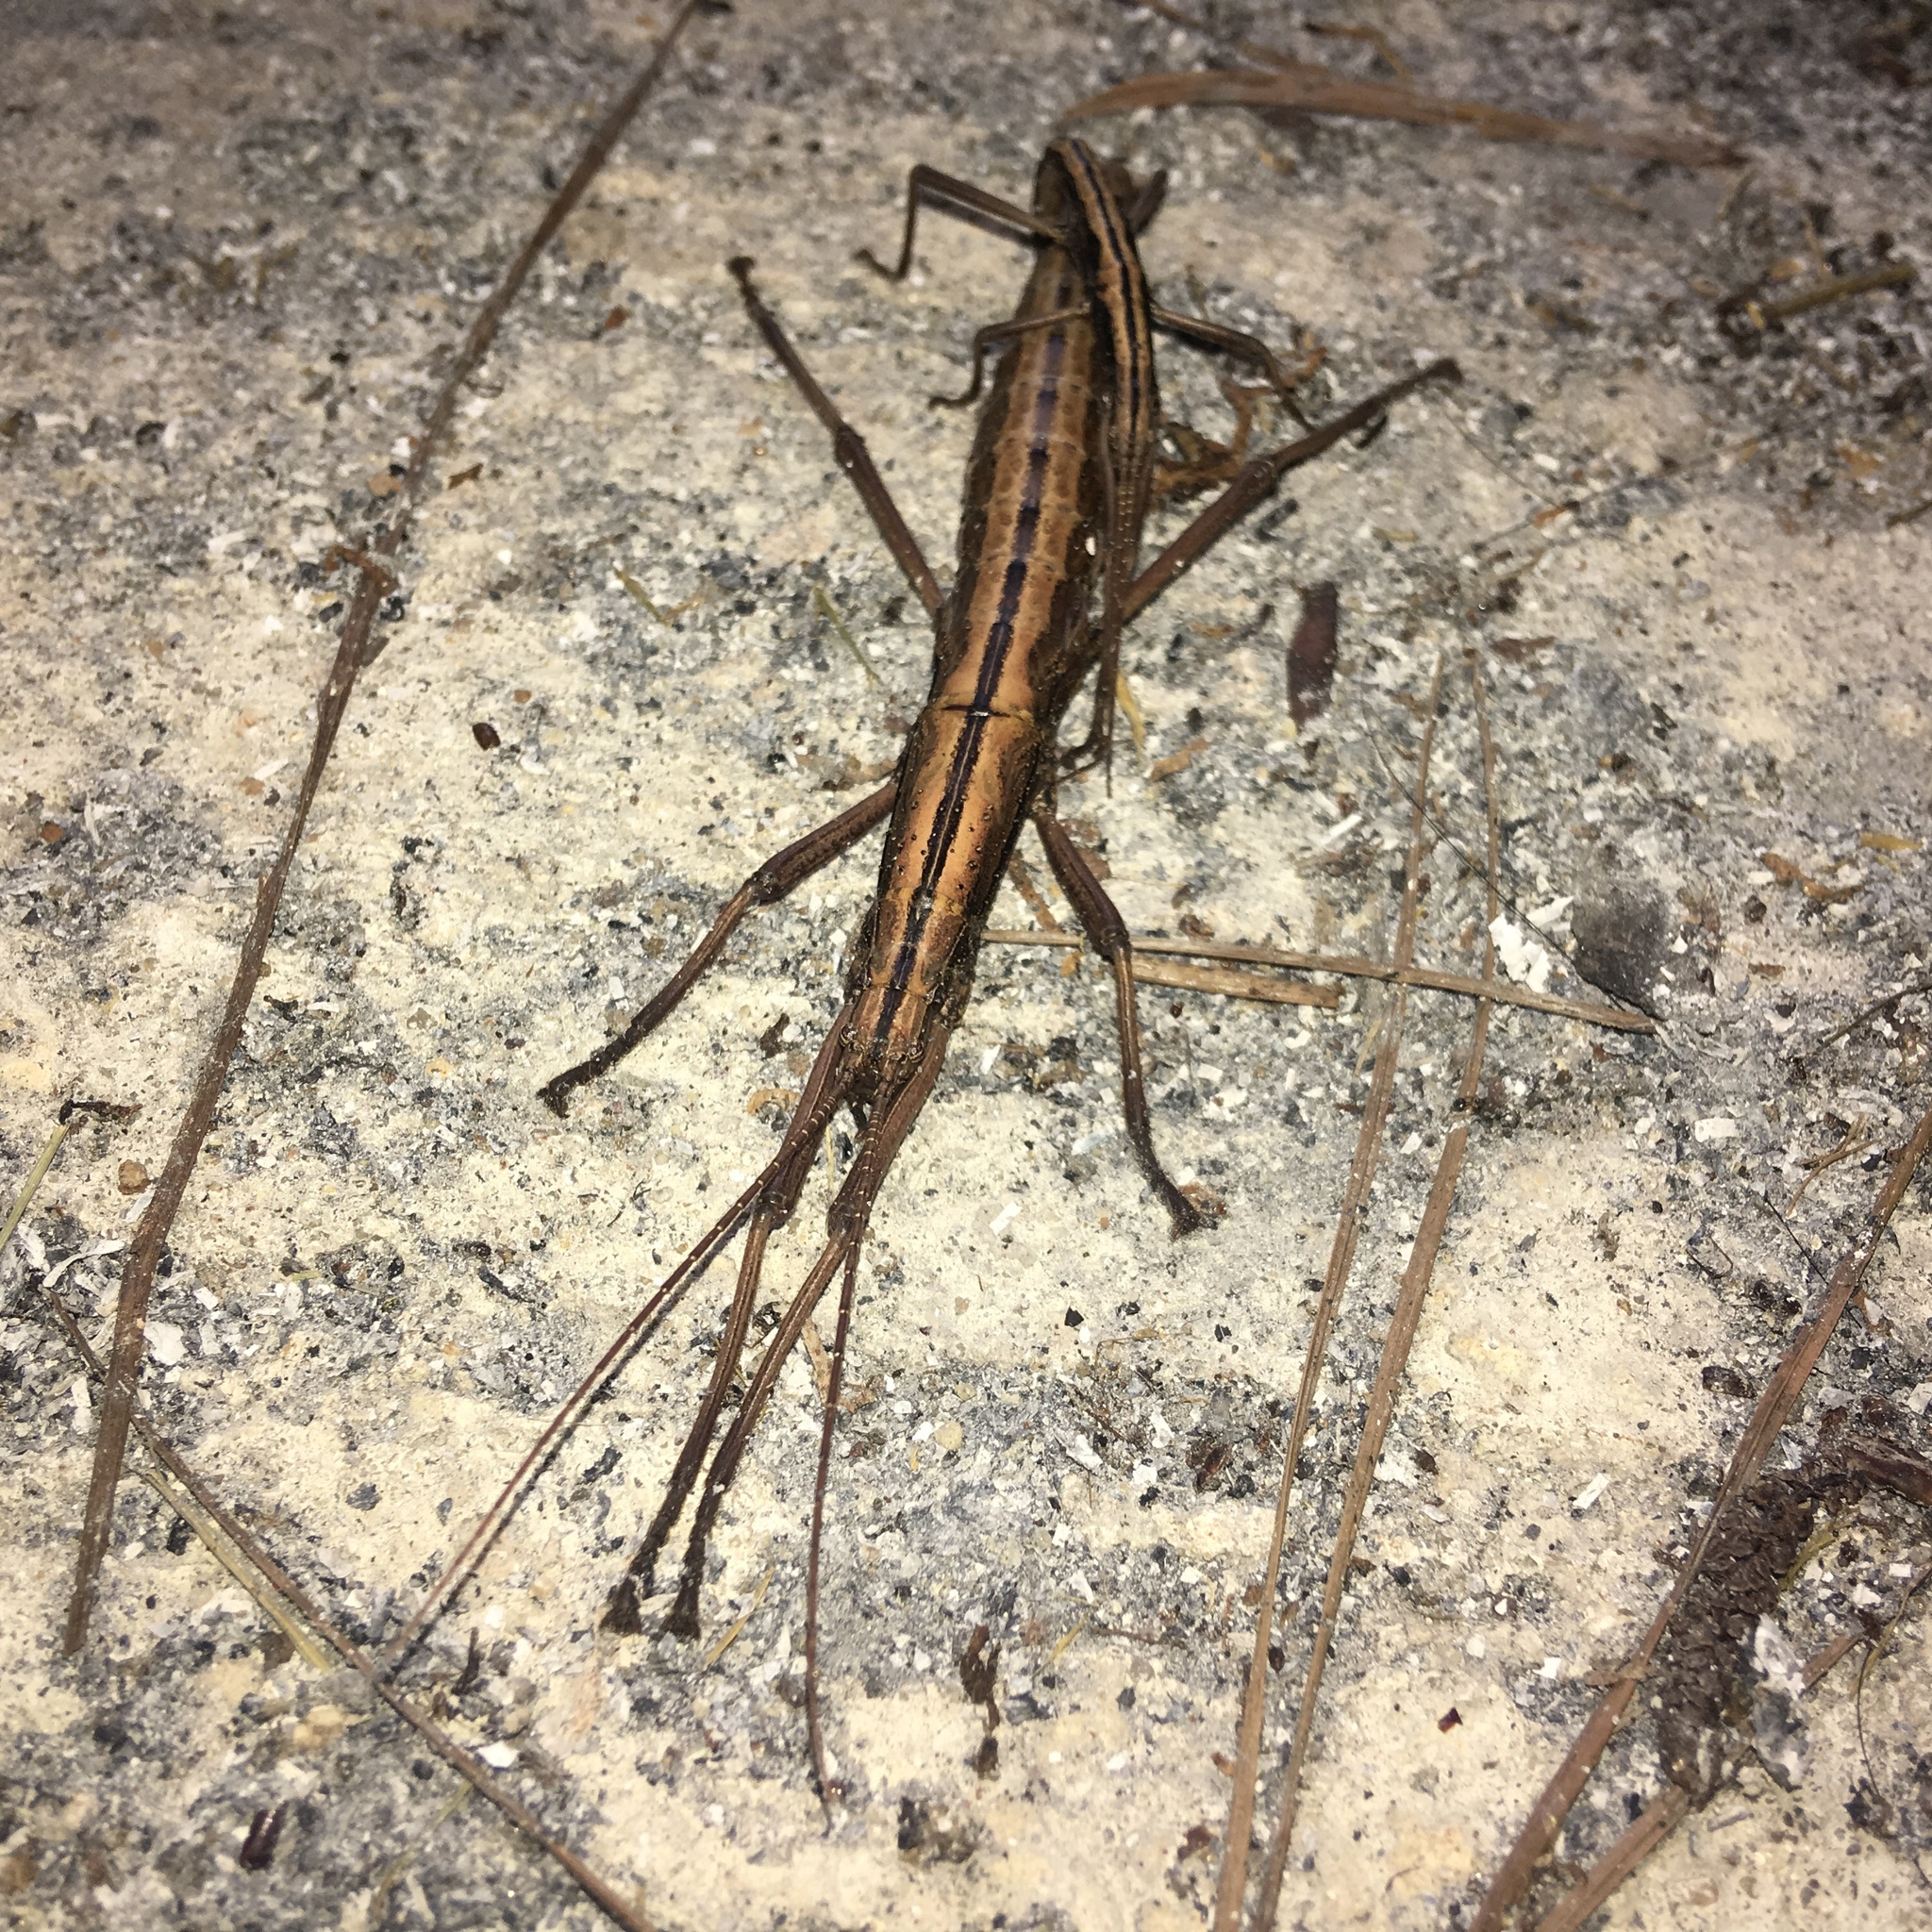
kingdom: Animalia
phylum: Arthropoda
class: Insecta
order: Phasmida
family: Pseudophasmatidae
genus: Anisomorpha
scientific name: Anisomorpha buprestoides
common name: Florida stick insect
